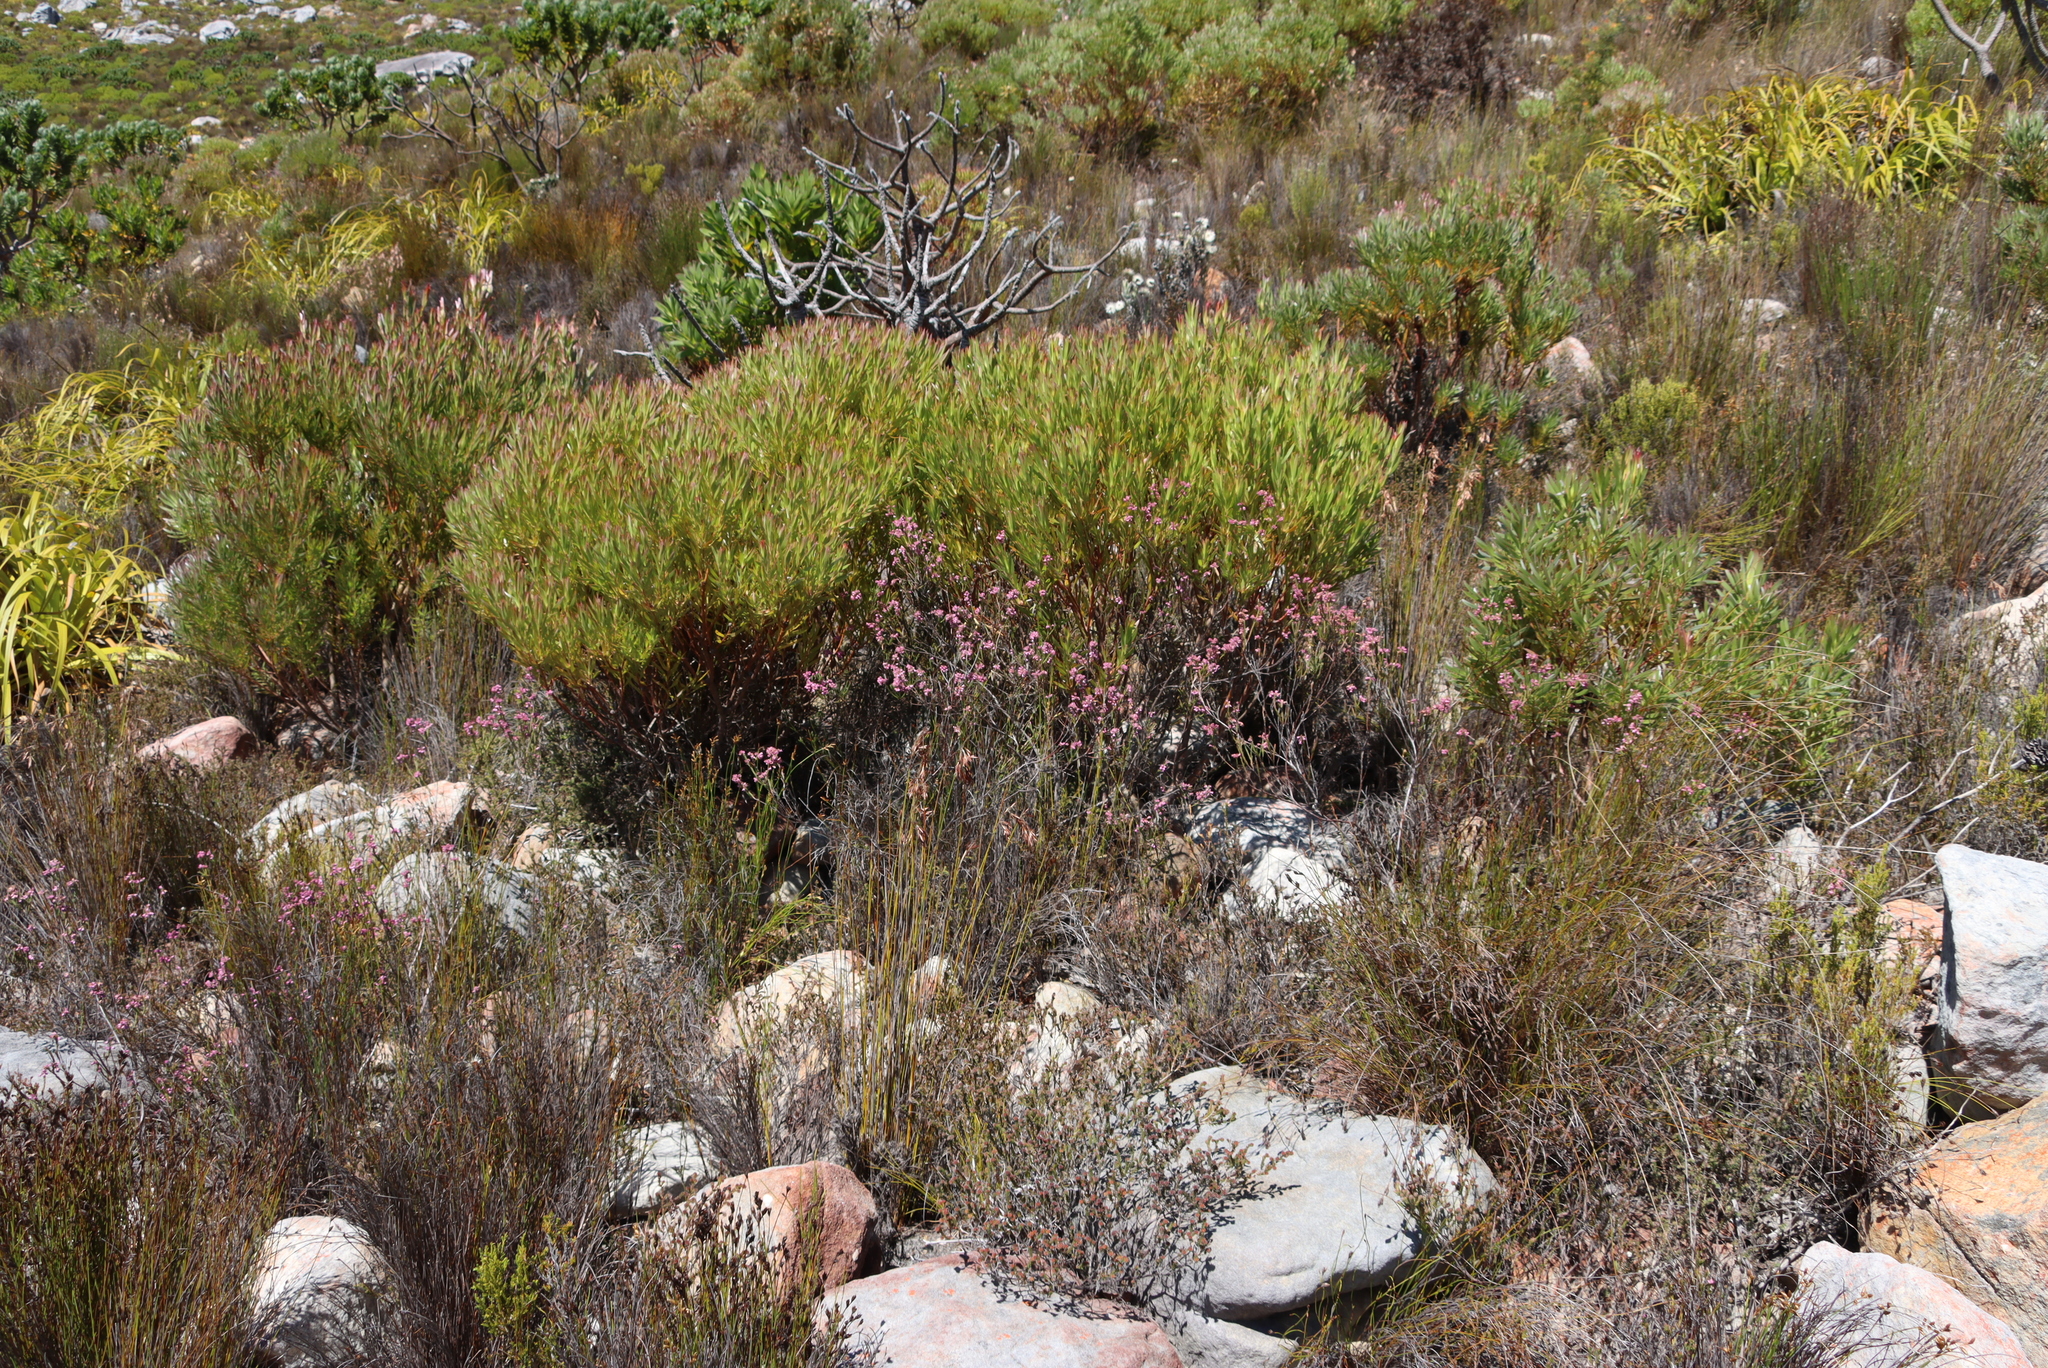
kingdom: Plantae
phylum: Tracheophyta
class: Magnoliopsida
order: Ericales
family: Ericaceae
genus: Erica
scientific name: Erica corifolia
